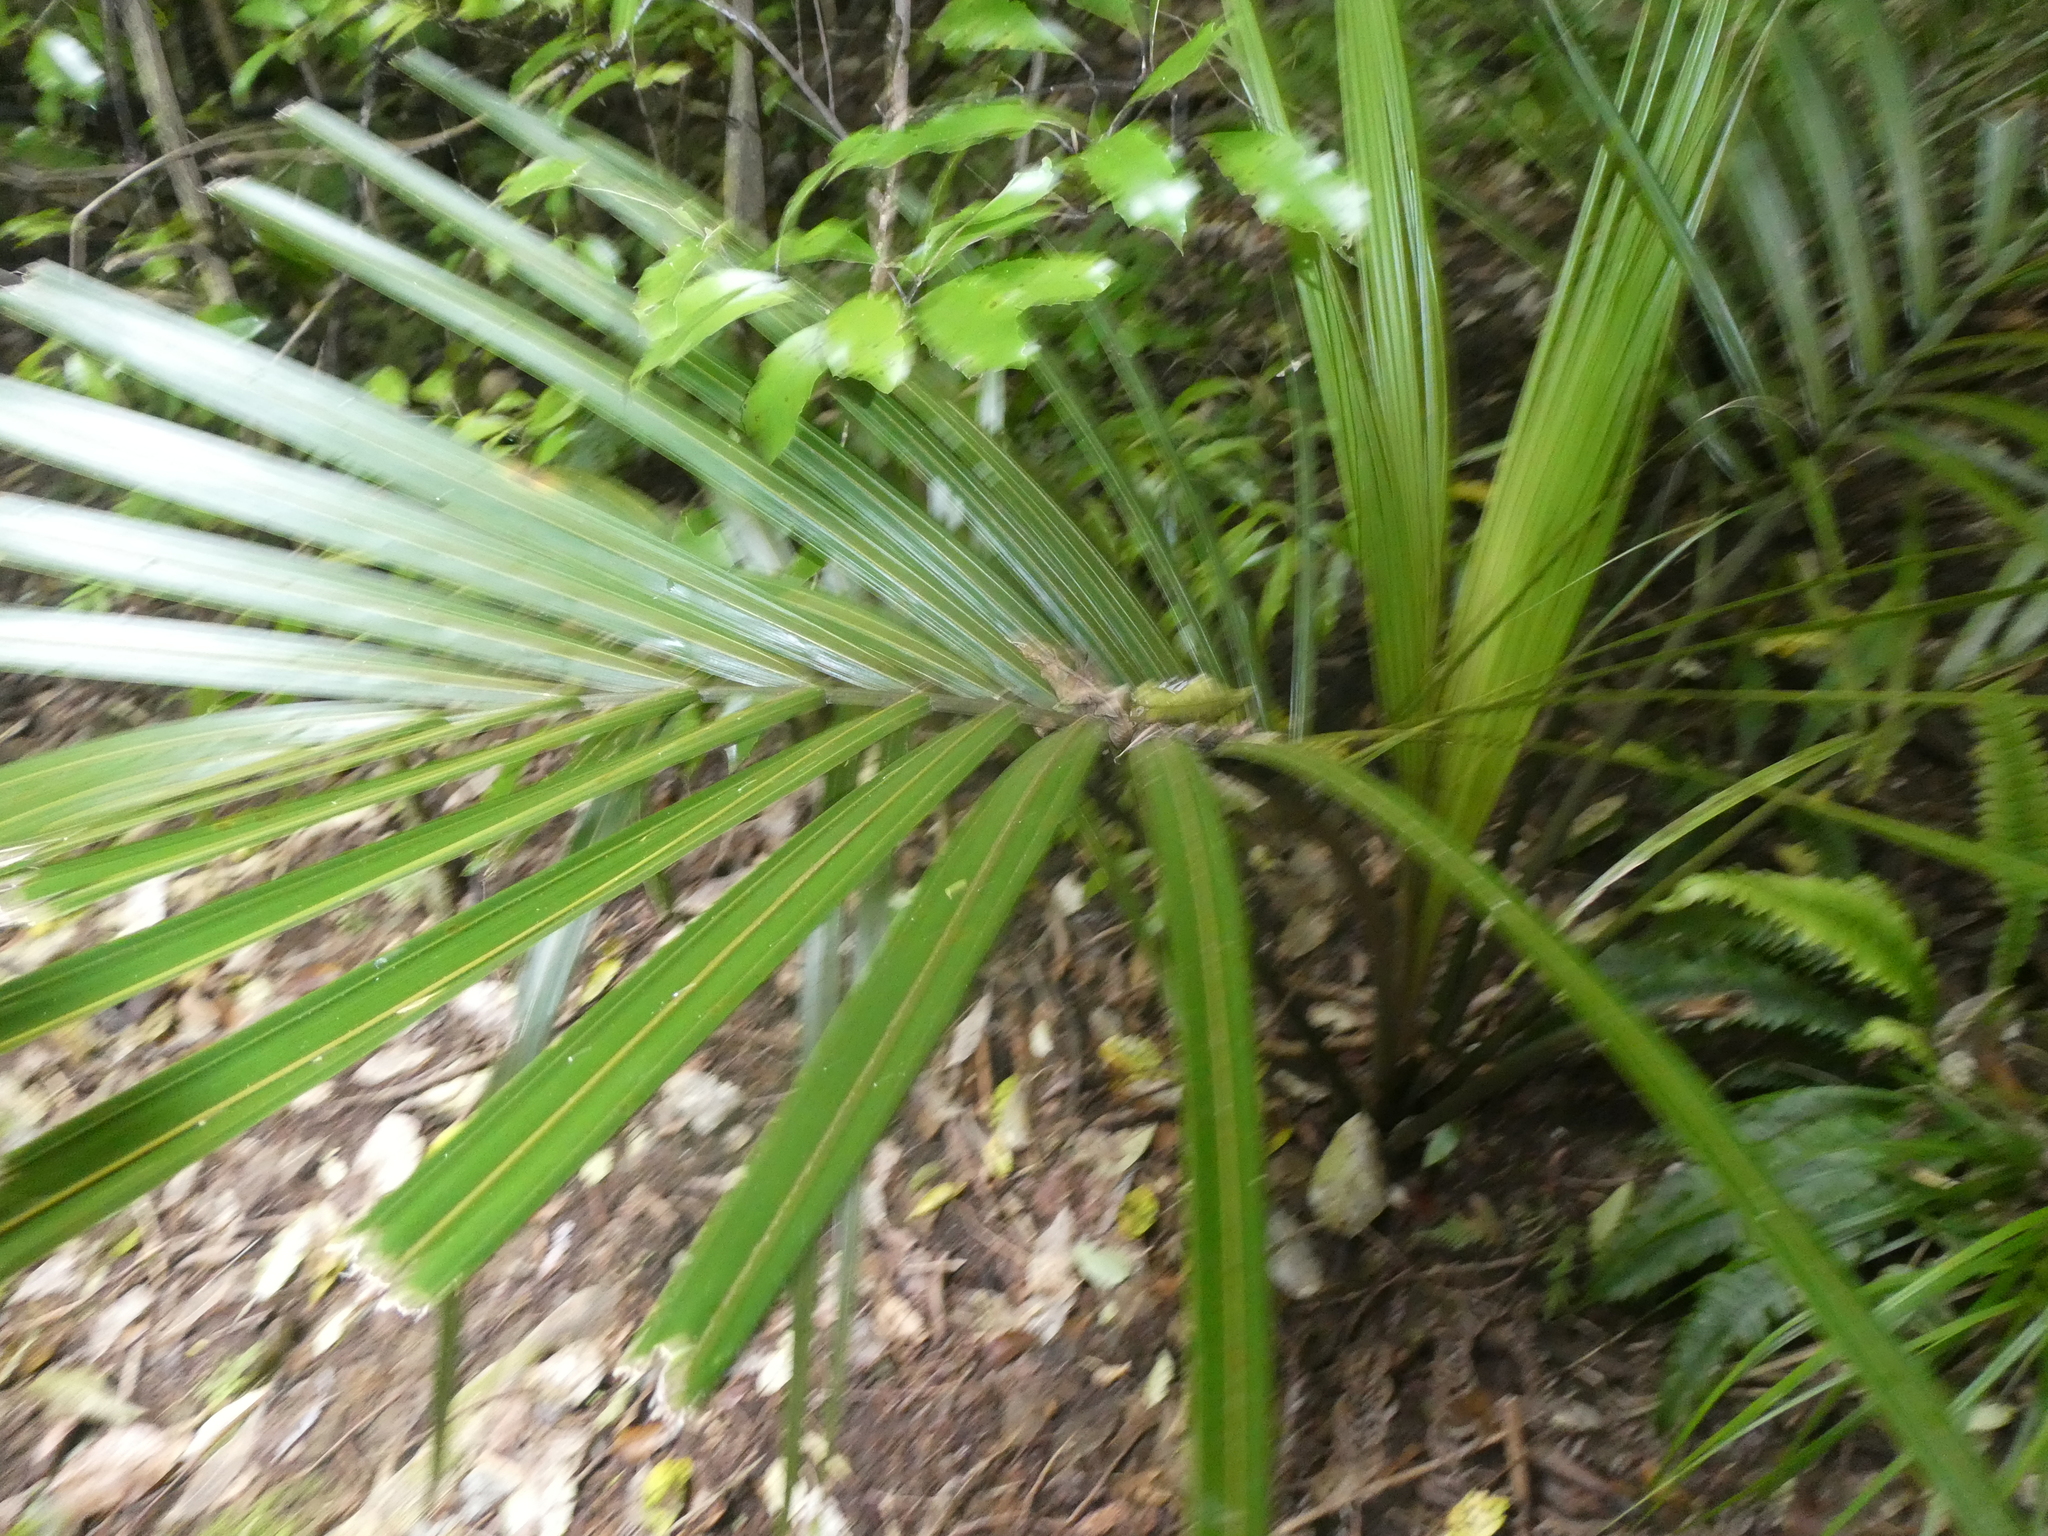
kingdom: Plantae
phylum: Tracheophyta
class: Liliopsida
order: Arecales
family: Arecaceae
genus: Rhopalostylis
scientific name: Rhopalostylis sapida
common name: Feather-duster palm
